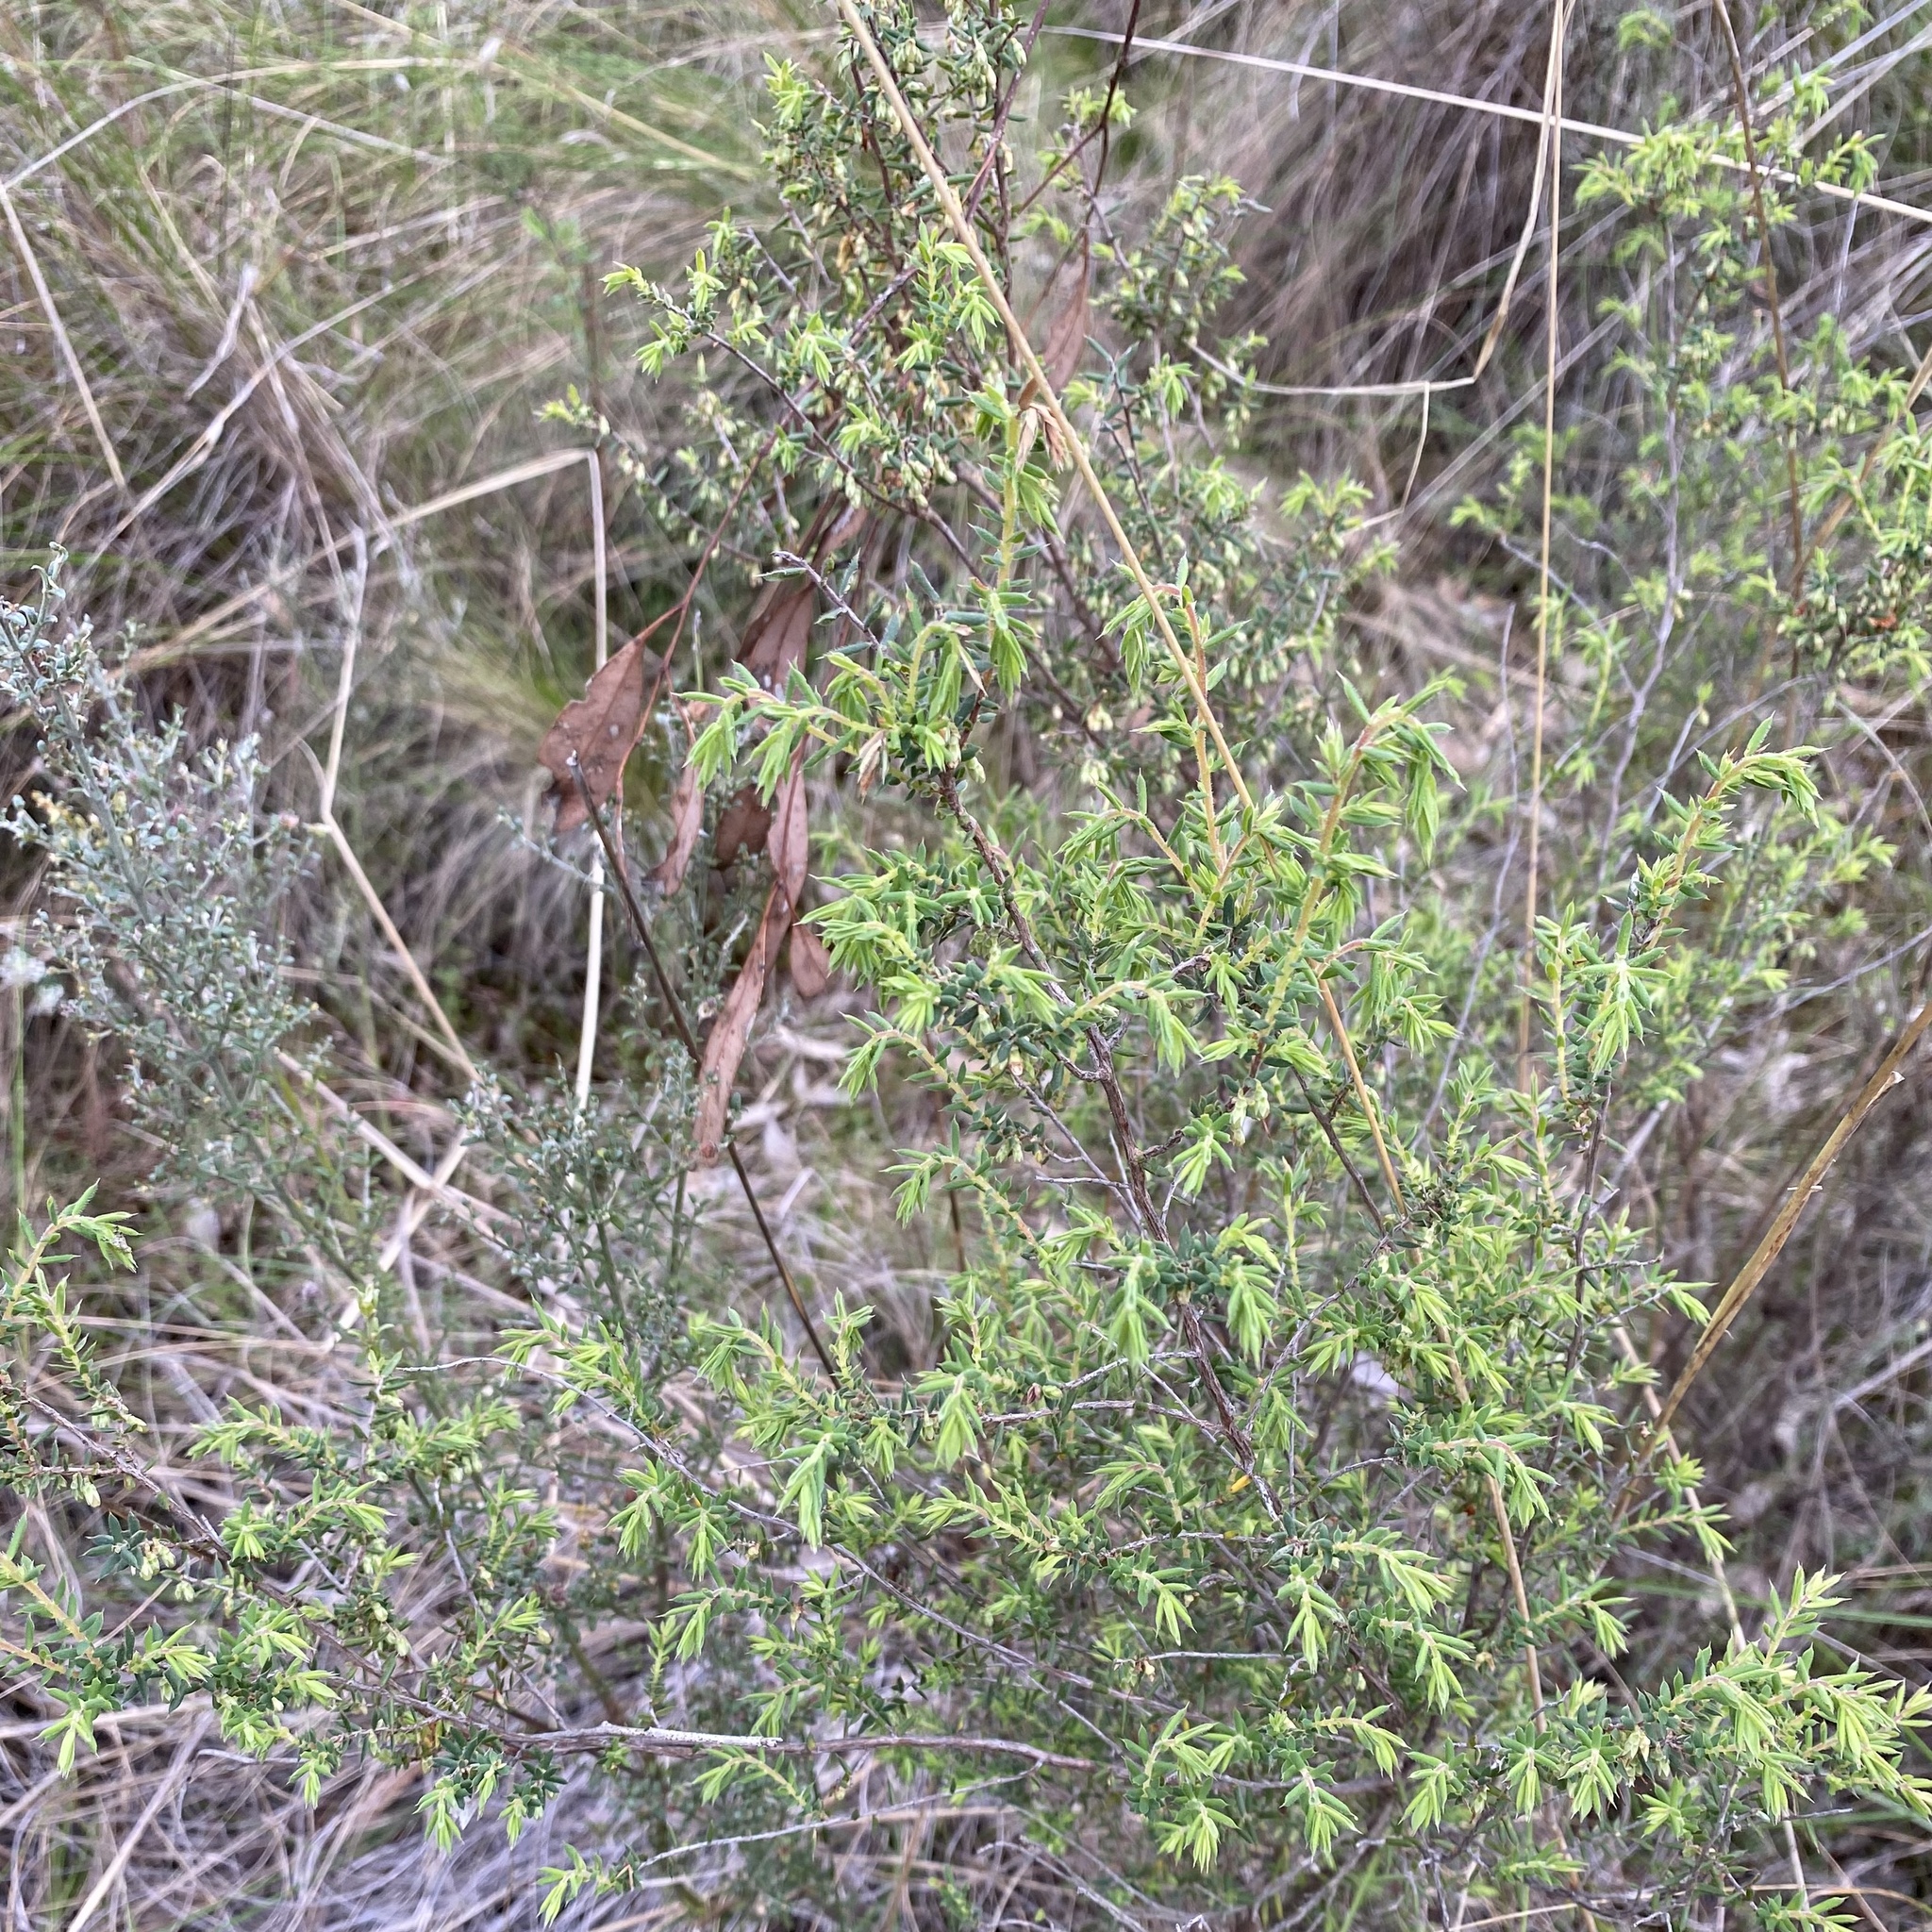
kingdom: Plantae
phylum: Tracheophyta
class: Magnoliopsida
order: Ericales
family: Ericaceae
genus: Styphelia
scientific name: Styphelia fletcheri
